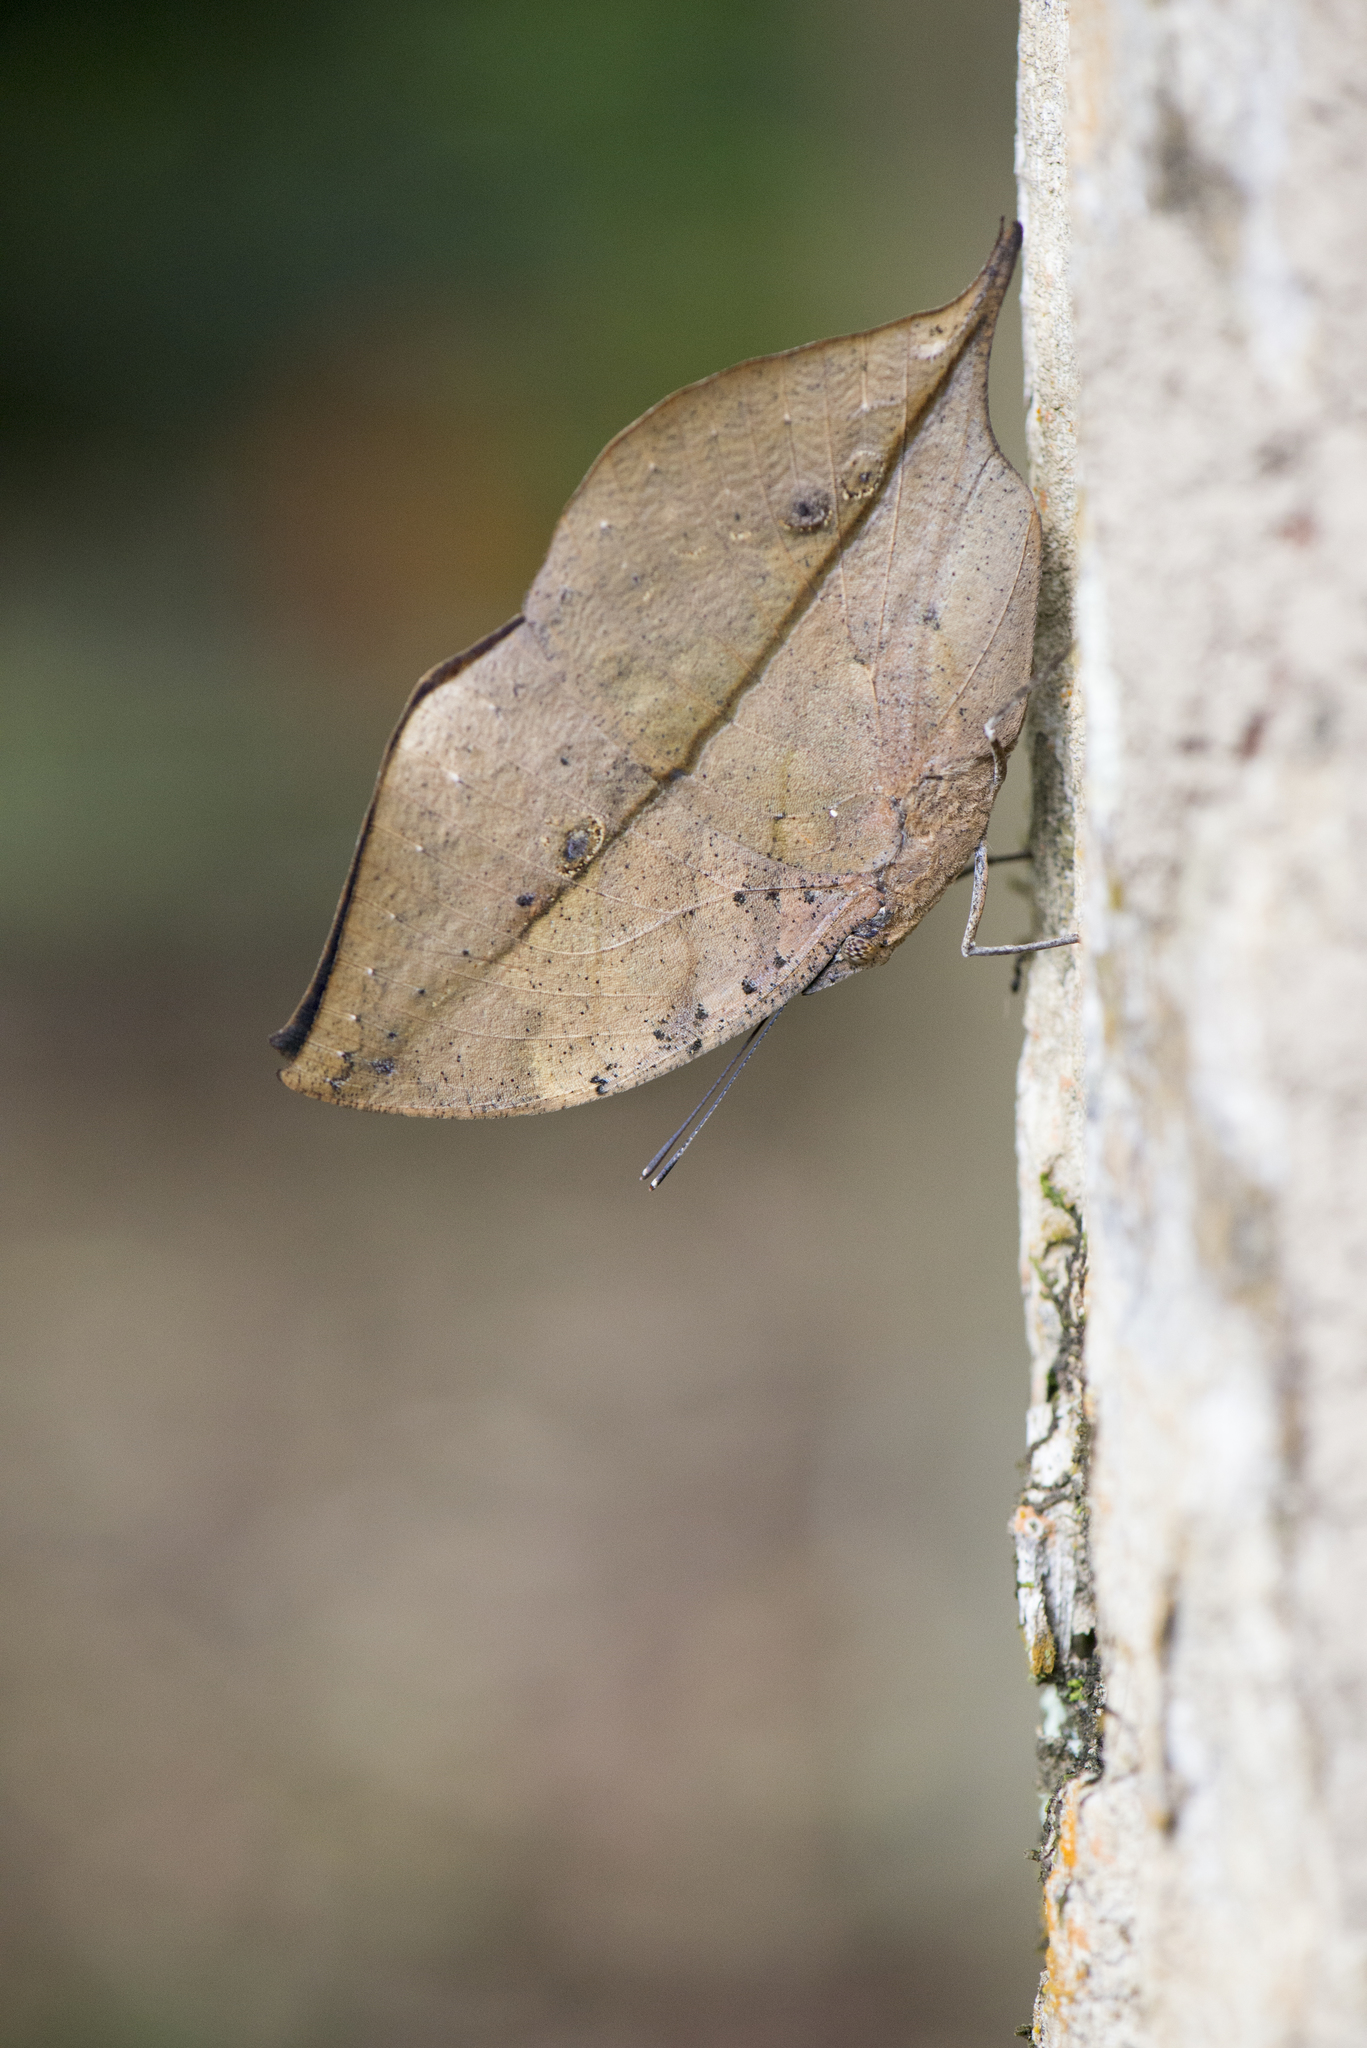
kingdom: Animalia
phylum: Arthropoda
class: Insecta
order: Lepidoptera
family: Nymphalidae
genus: Kallima
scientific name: Kallima inachus
